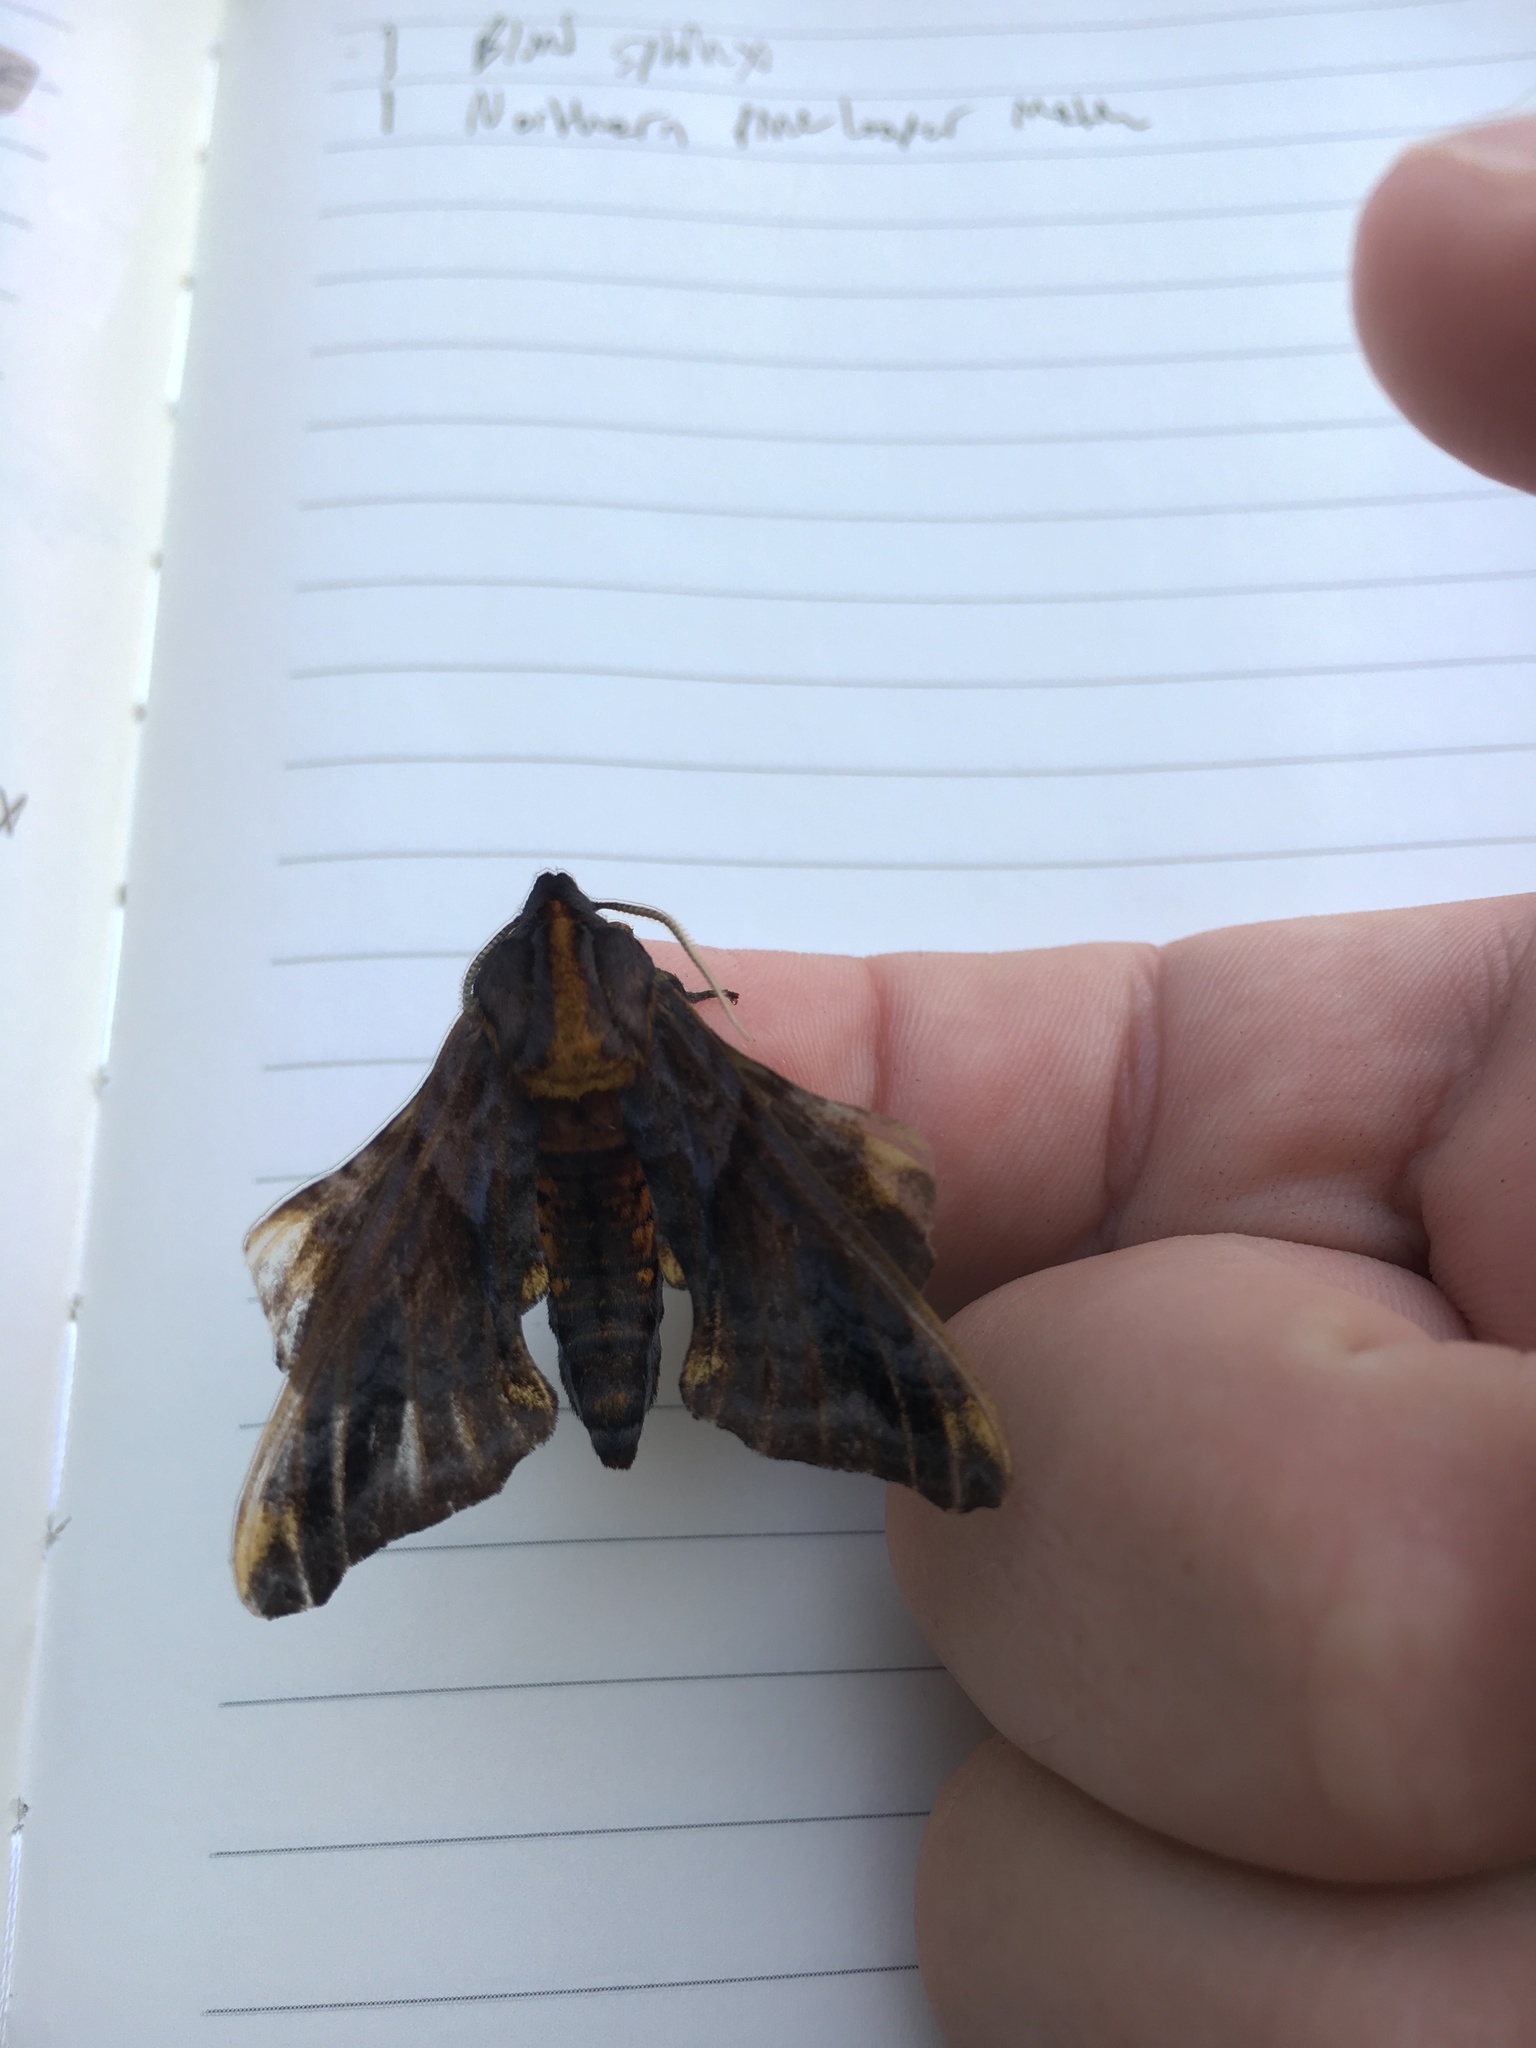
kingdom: Animalia
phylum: Arthropoda
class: Insecta
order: Lepidoptera
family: Sphingidae
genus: Paonias
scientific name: Paonias myops
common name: Small-eyed sphinx
